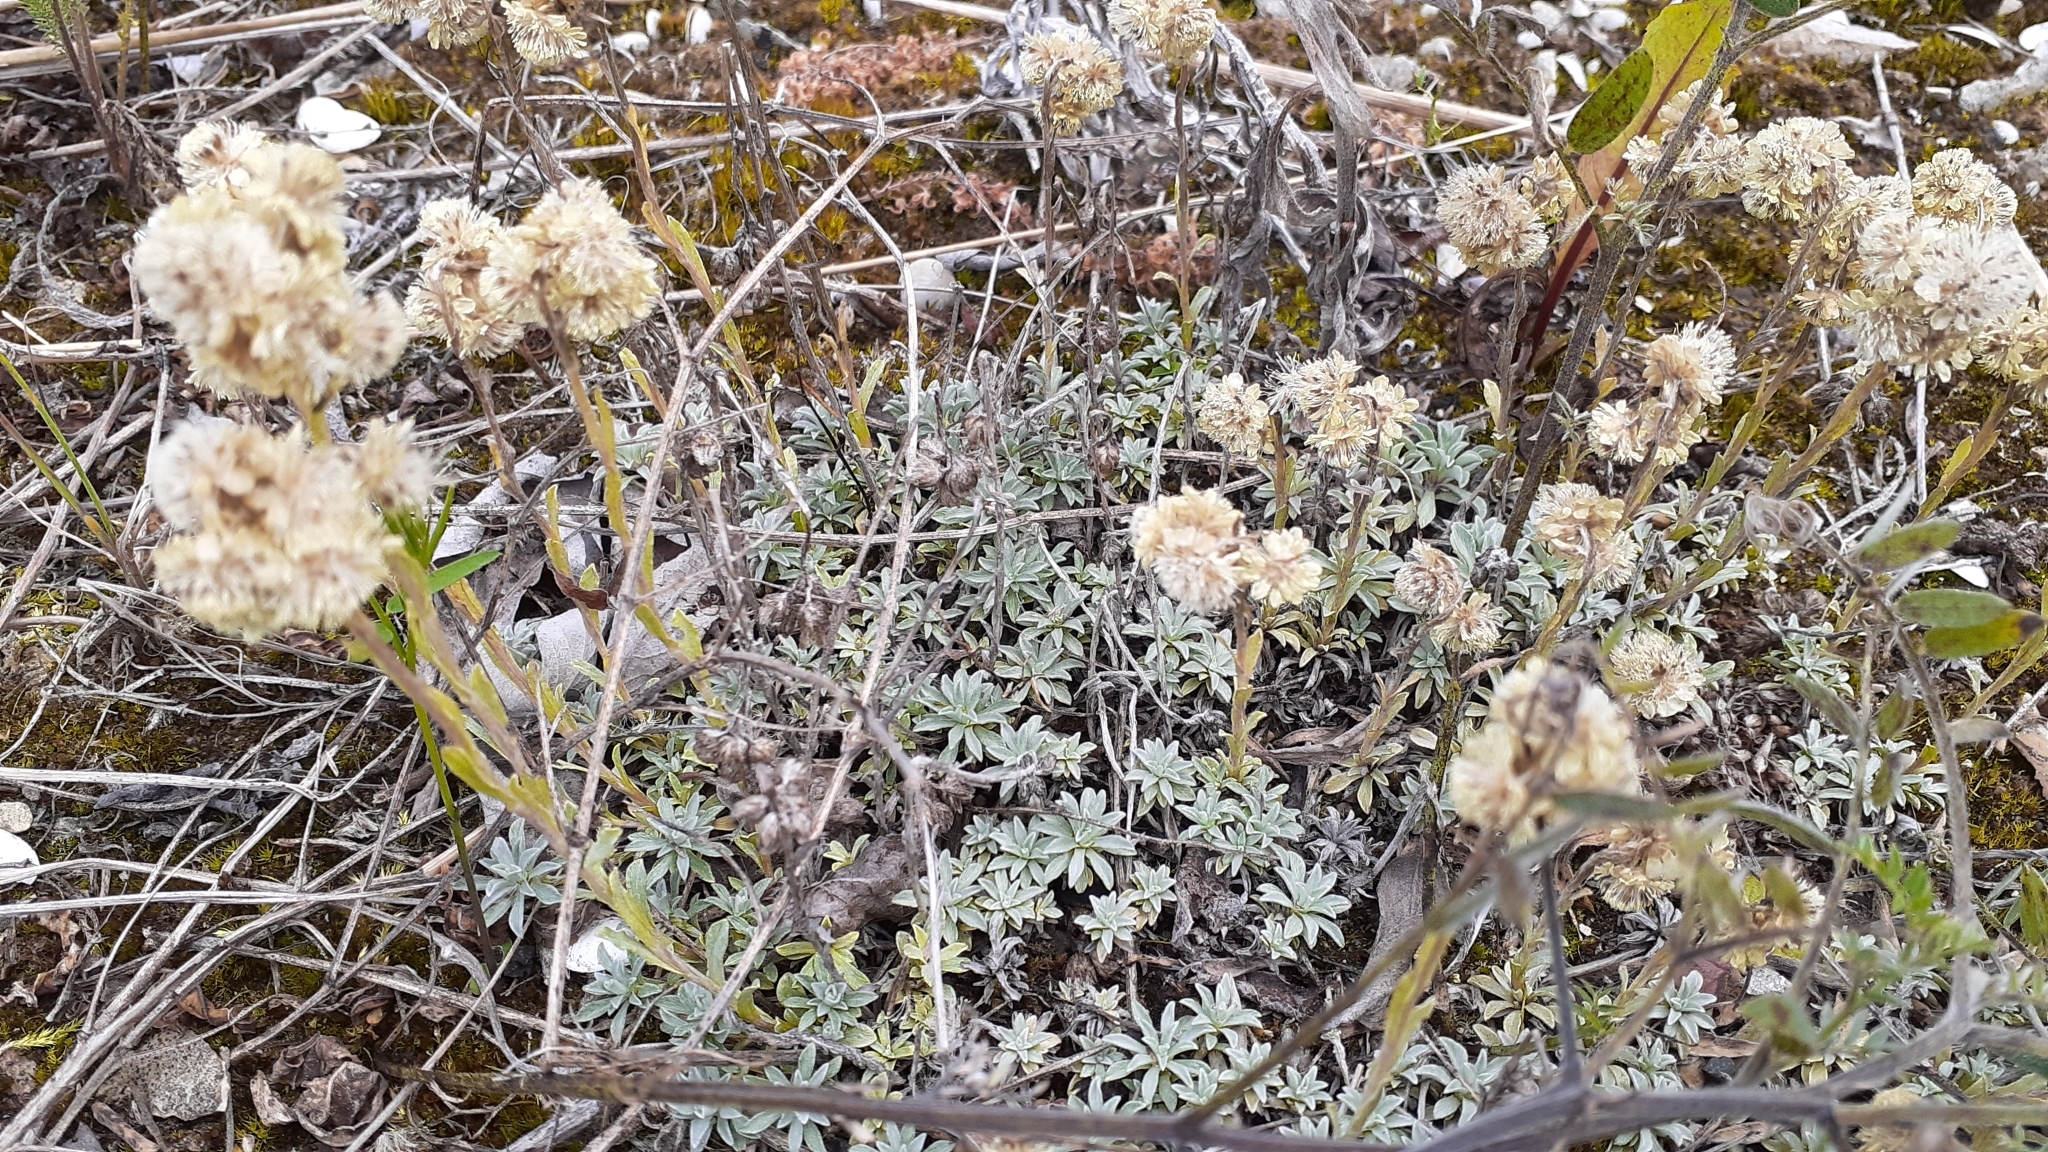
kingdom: Plantae
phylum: Tracheophyta
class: Magnoliopsida
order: Asterales
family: Asteraceae
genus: Antennaria
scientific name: Antennaria parvifolia
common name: Nuttall's pussytoes
